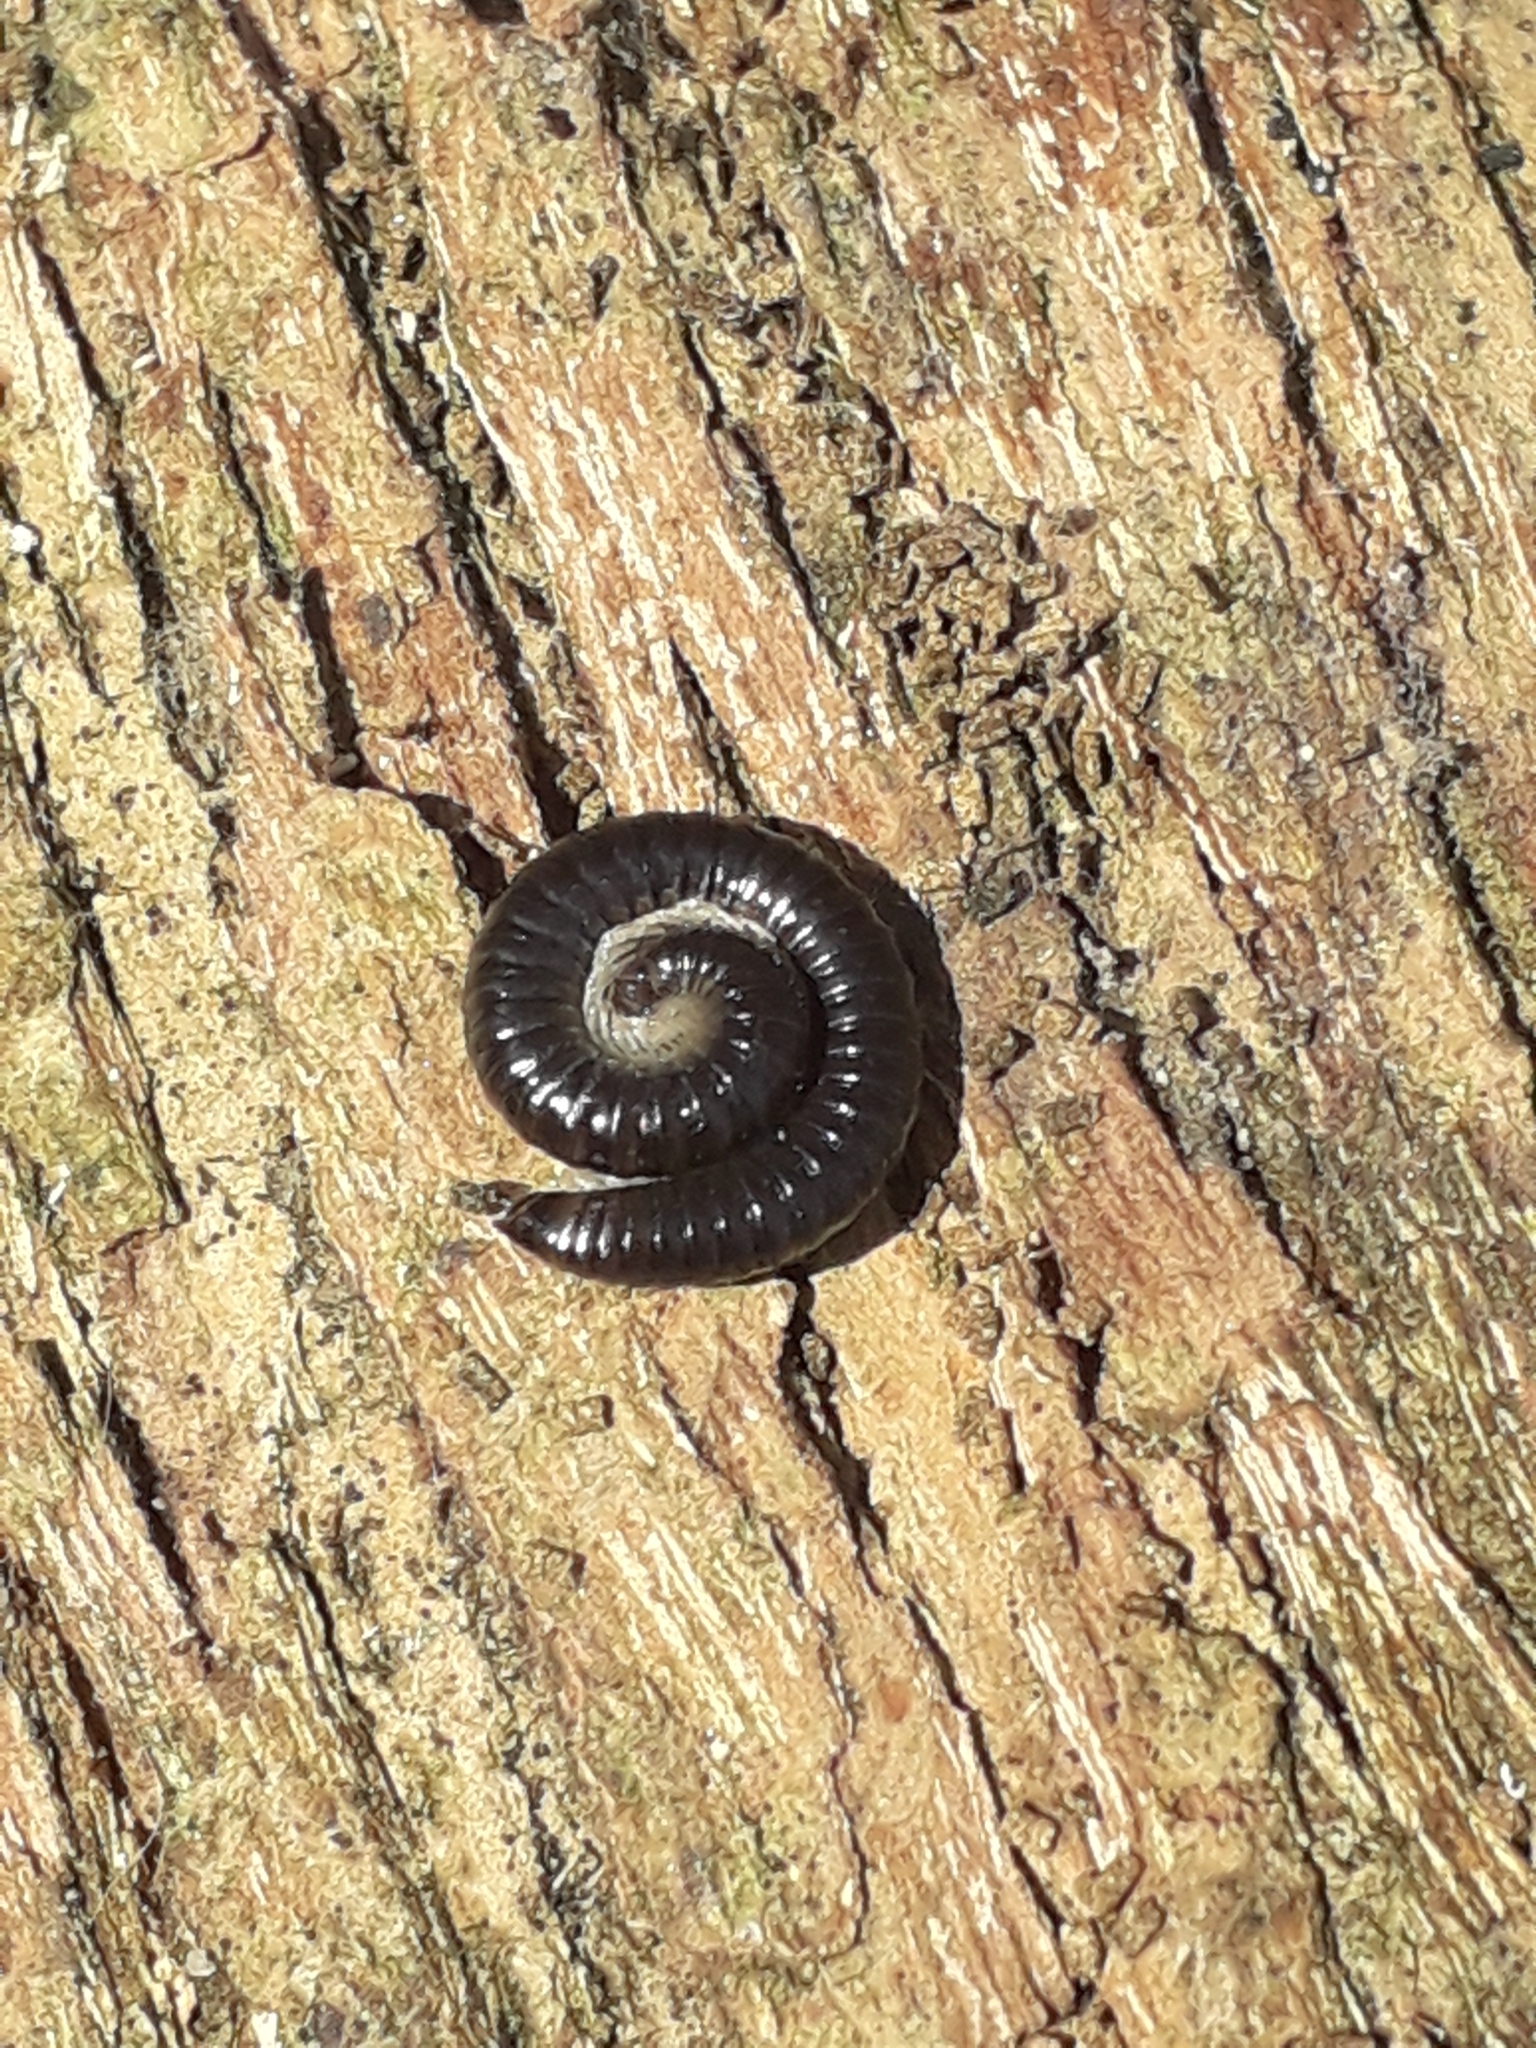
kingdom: Animalia
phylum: Arthropoda
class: Diplopoda
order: Julida
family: Julidae
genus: Tachypodoiulus
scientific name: Tachypodoiulus niger
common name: White-legged snake millipede
